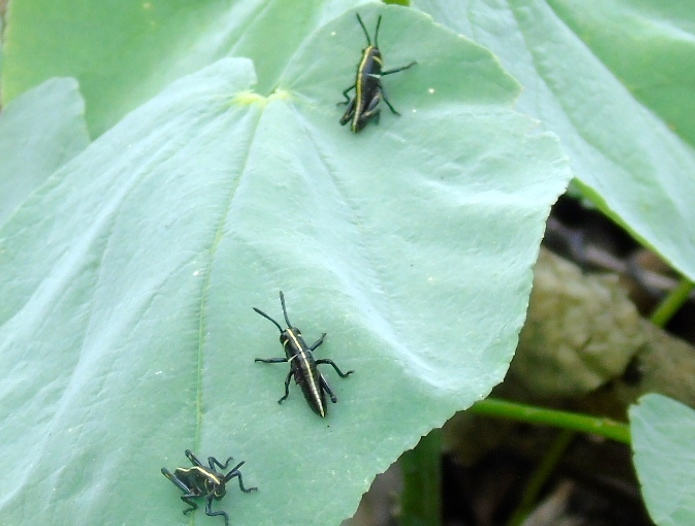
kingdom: Animalia
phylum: Arthropoda
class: Insecta
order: Orthoptera
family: Romaleidae
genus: Romalea
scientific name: Romalea
